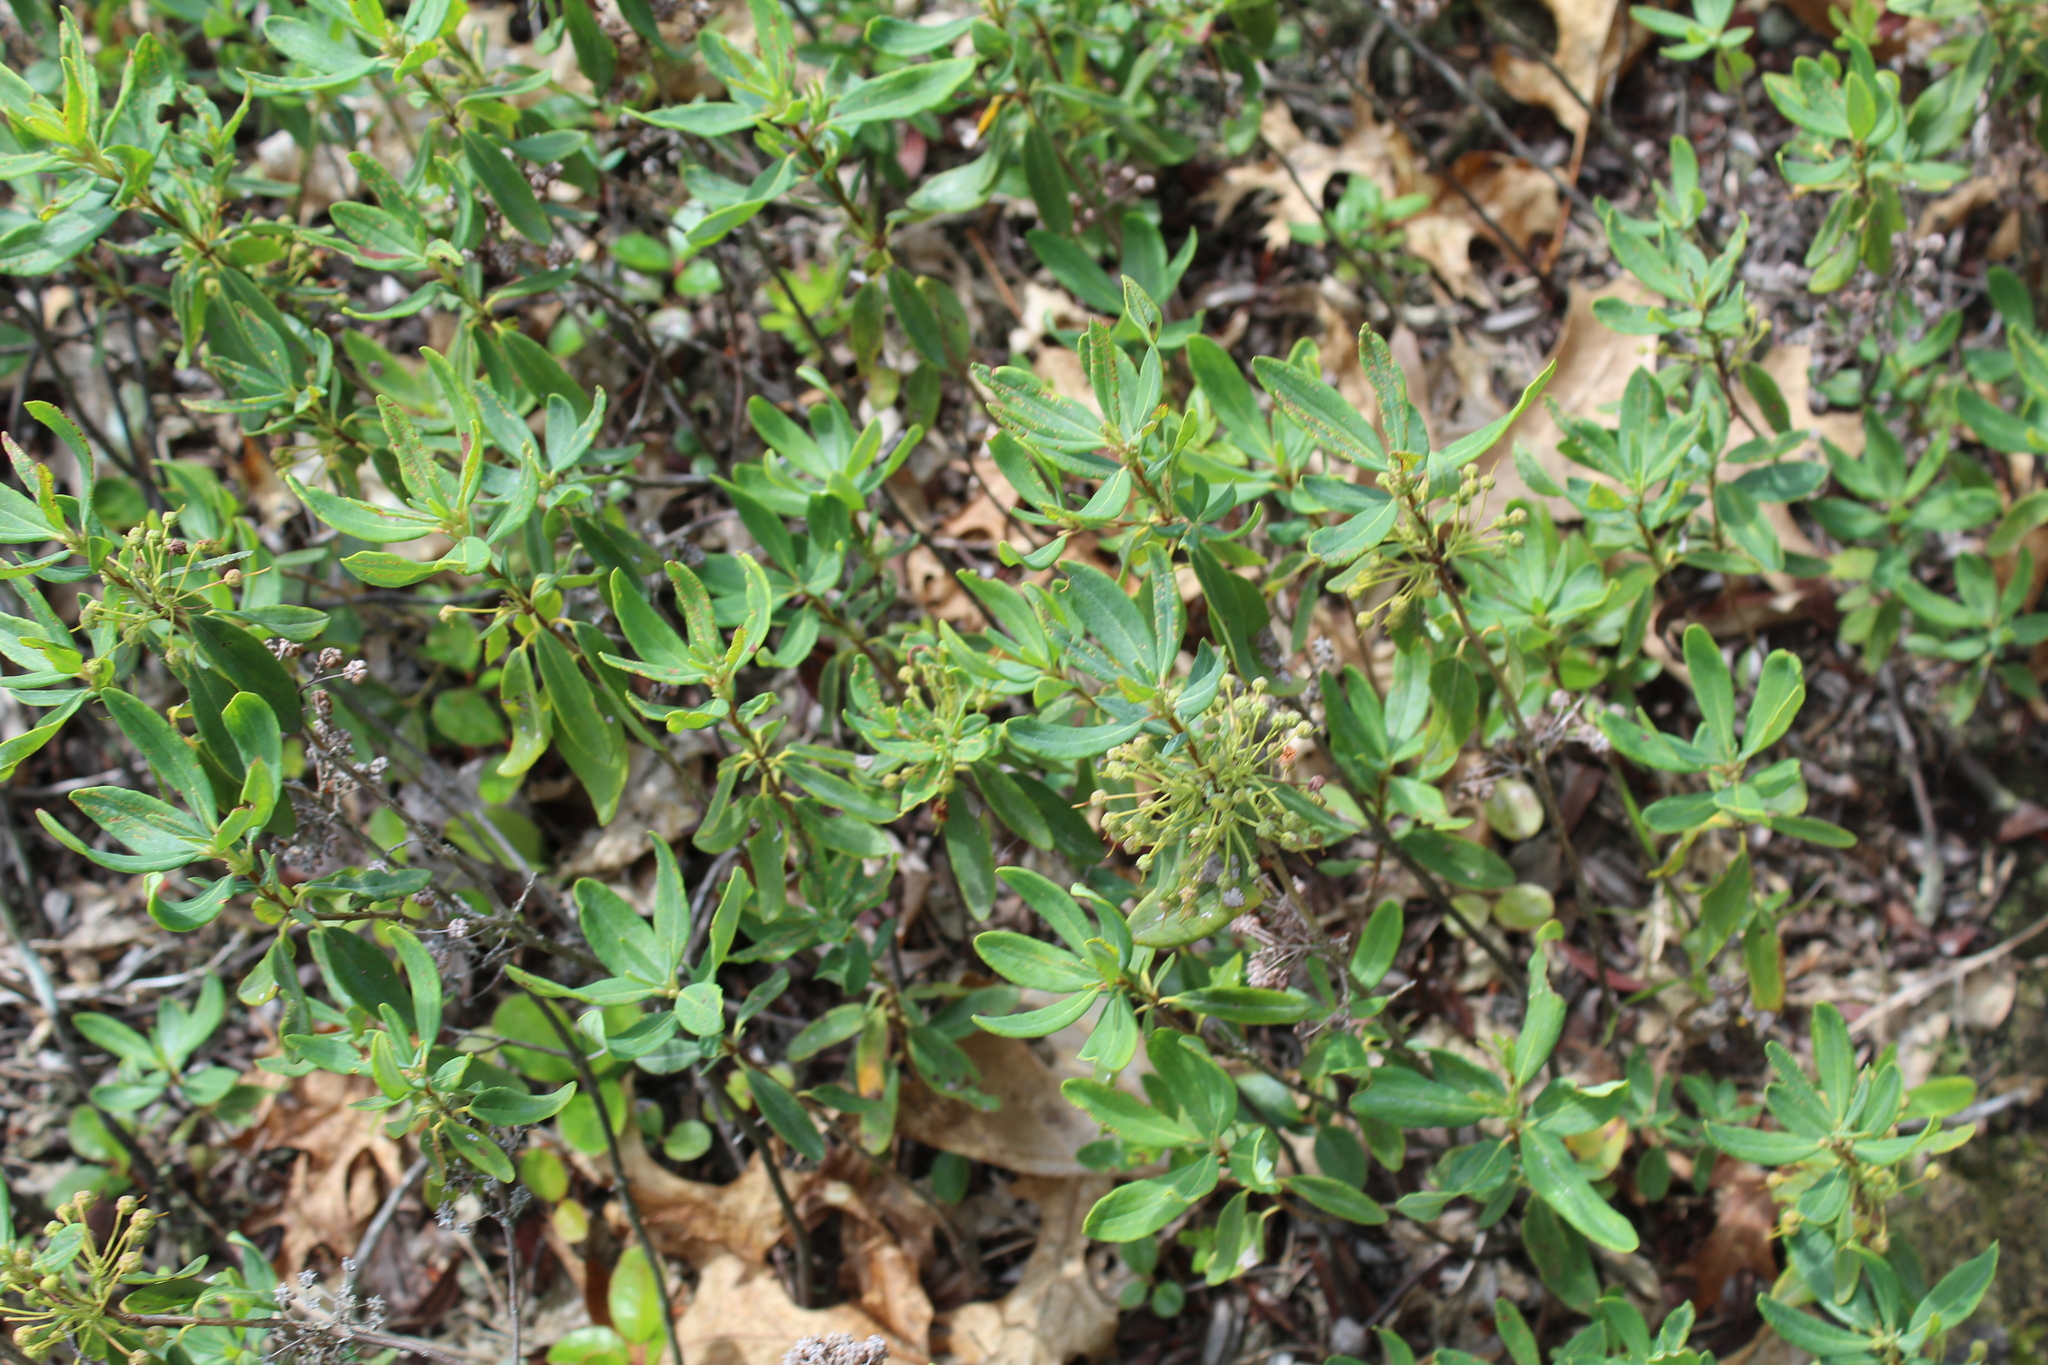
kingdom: Plantae
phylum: Tracheophyta
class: Magnoliopsida
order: Ericales
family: Ericaceae
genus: Kalmia
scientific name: Kalmia angustifolia
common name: Sheep-laurel
